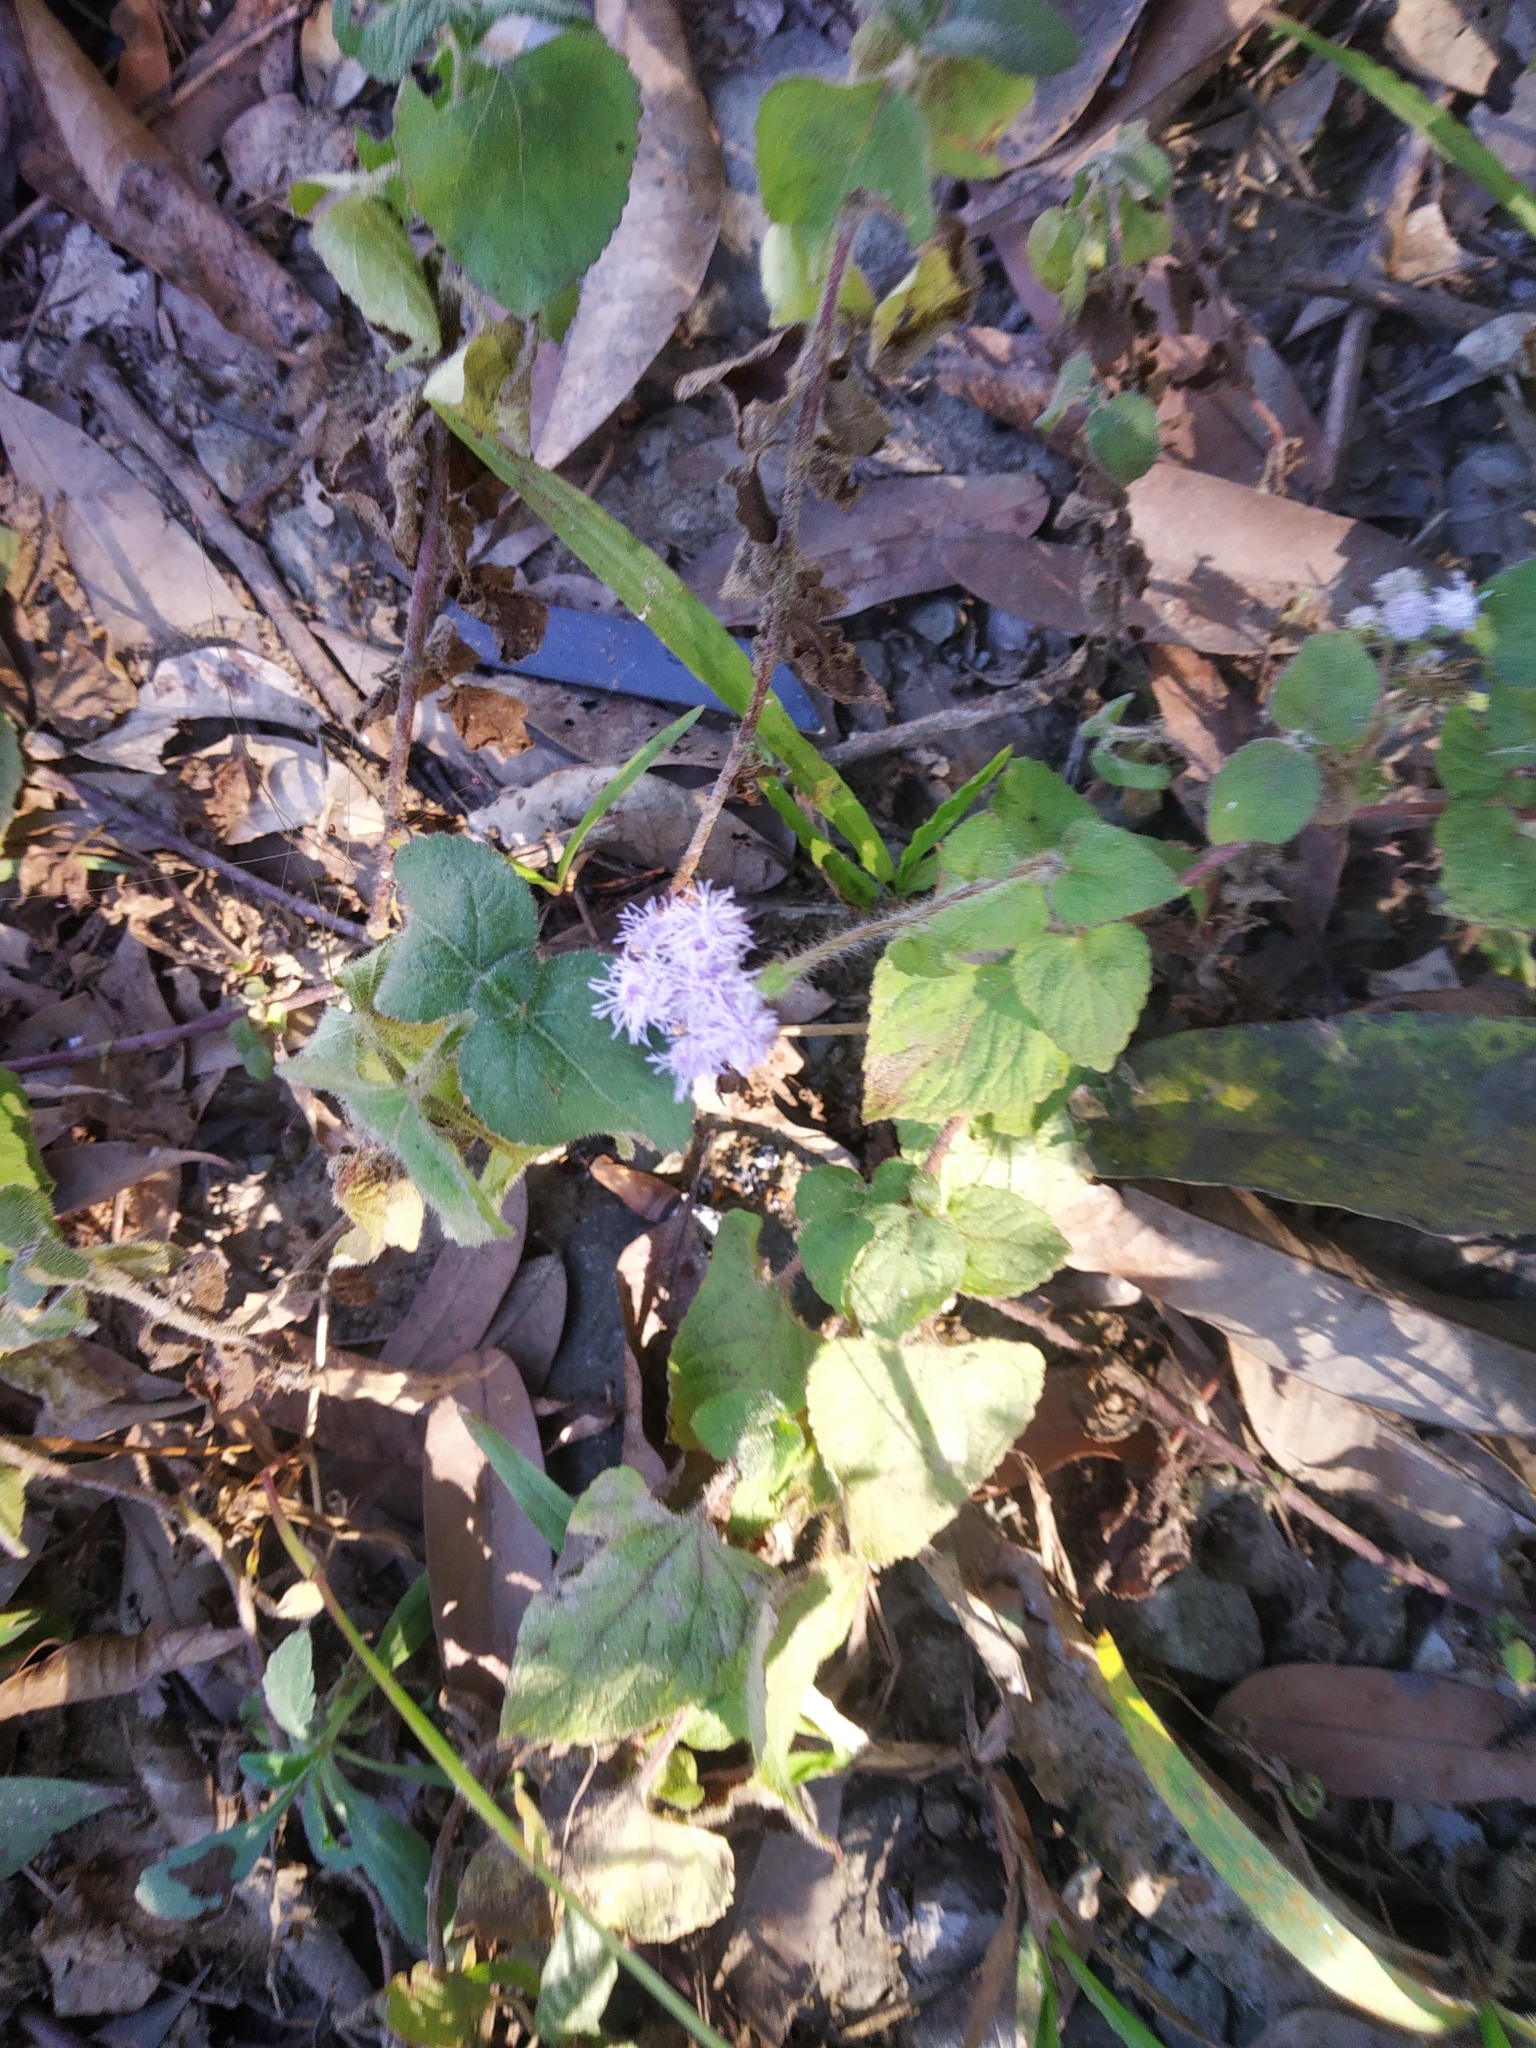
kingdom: Plantae
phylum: Tracheophyta
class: Magnoliopsida
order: Asterales
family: Asteraceae
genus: Ageratum
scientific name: Ageratum houstonianum
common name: Bluemink
